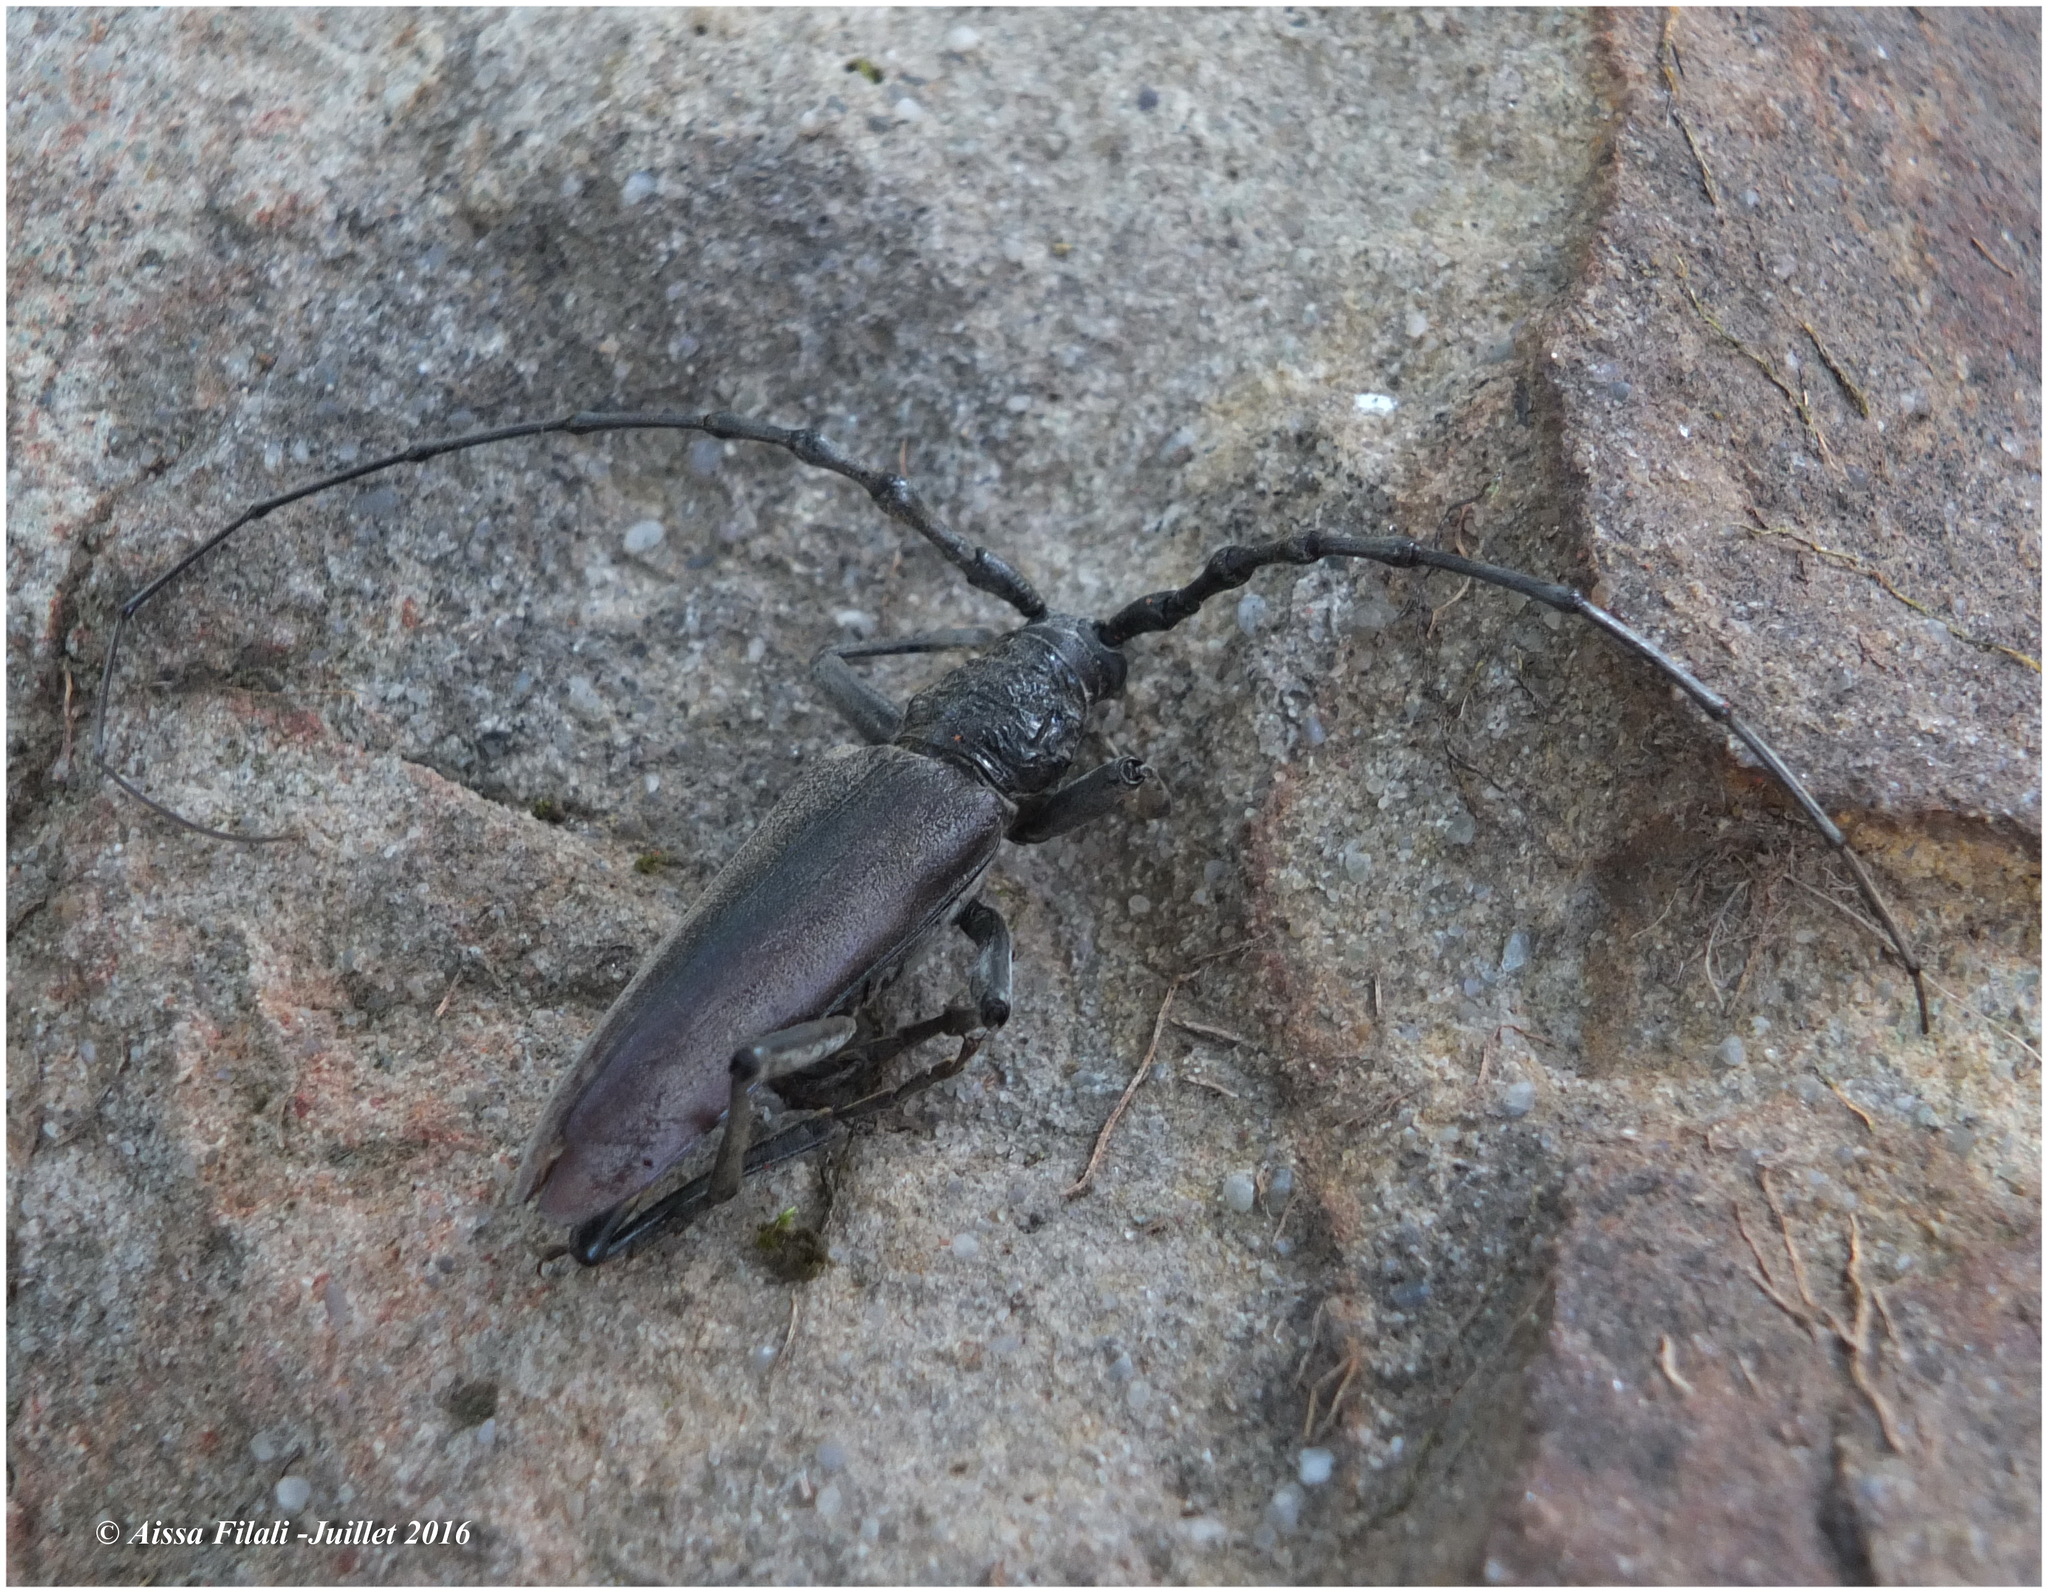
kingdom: Animalia
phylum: Arthropoda
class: Insecta
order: Coleoptera
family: Cerambycidae
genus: Cerambyx
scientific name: Cerambyx welensii
